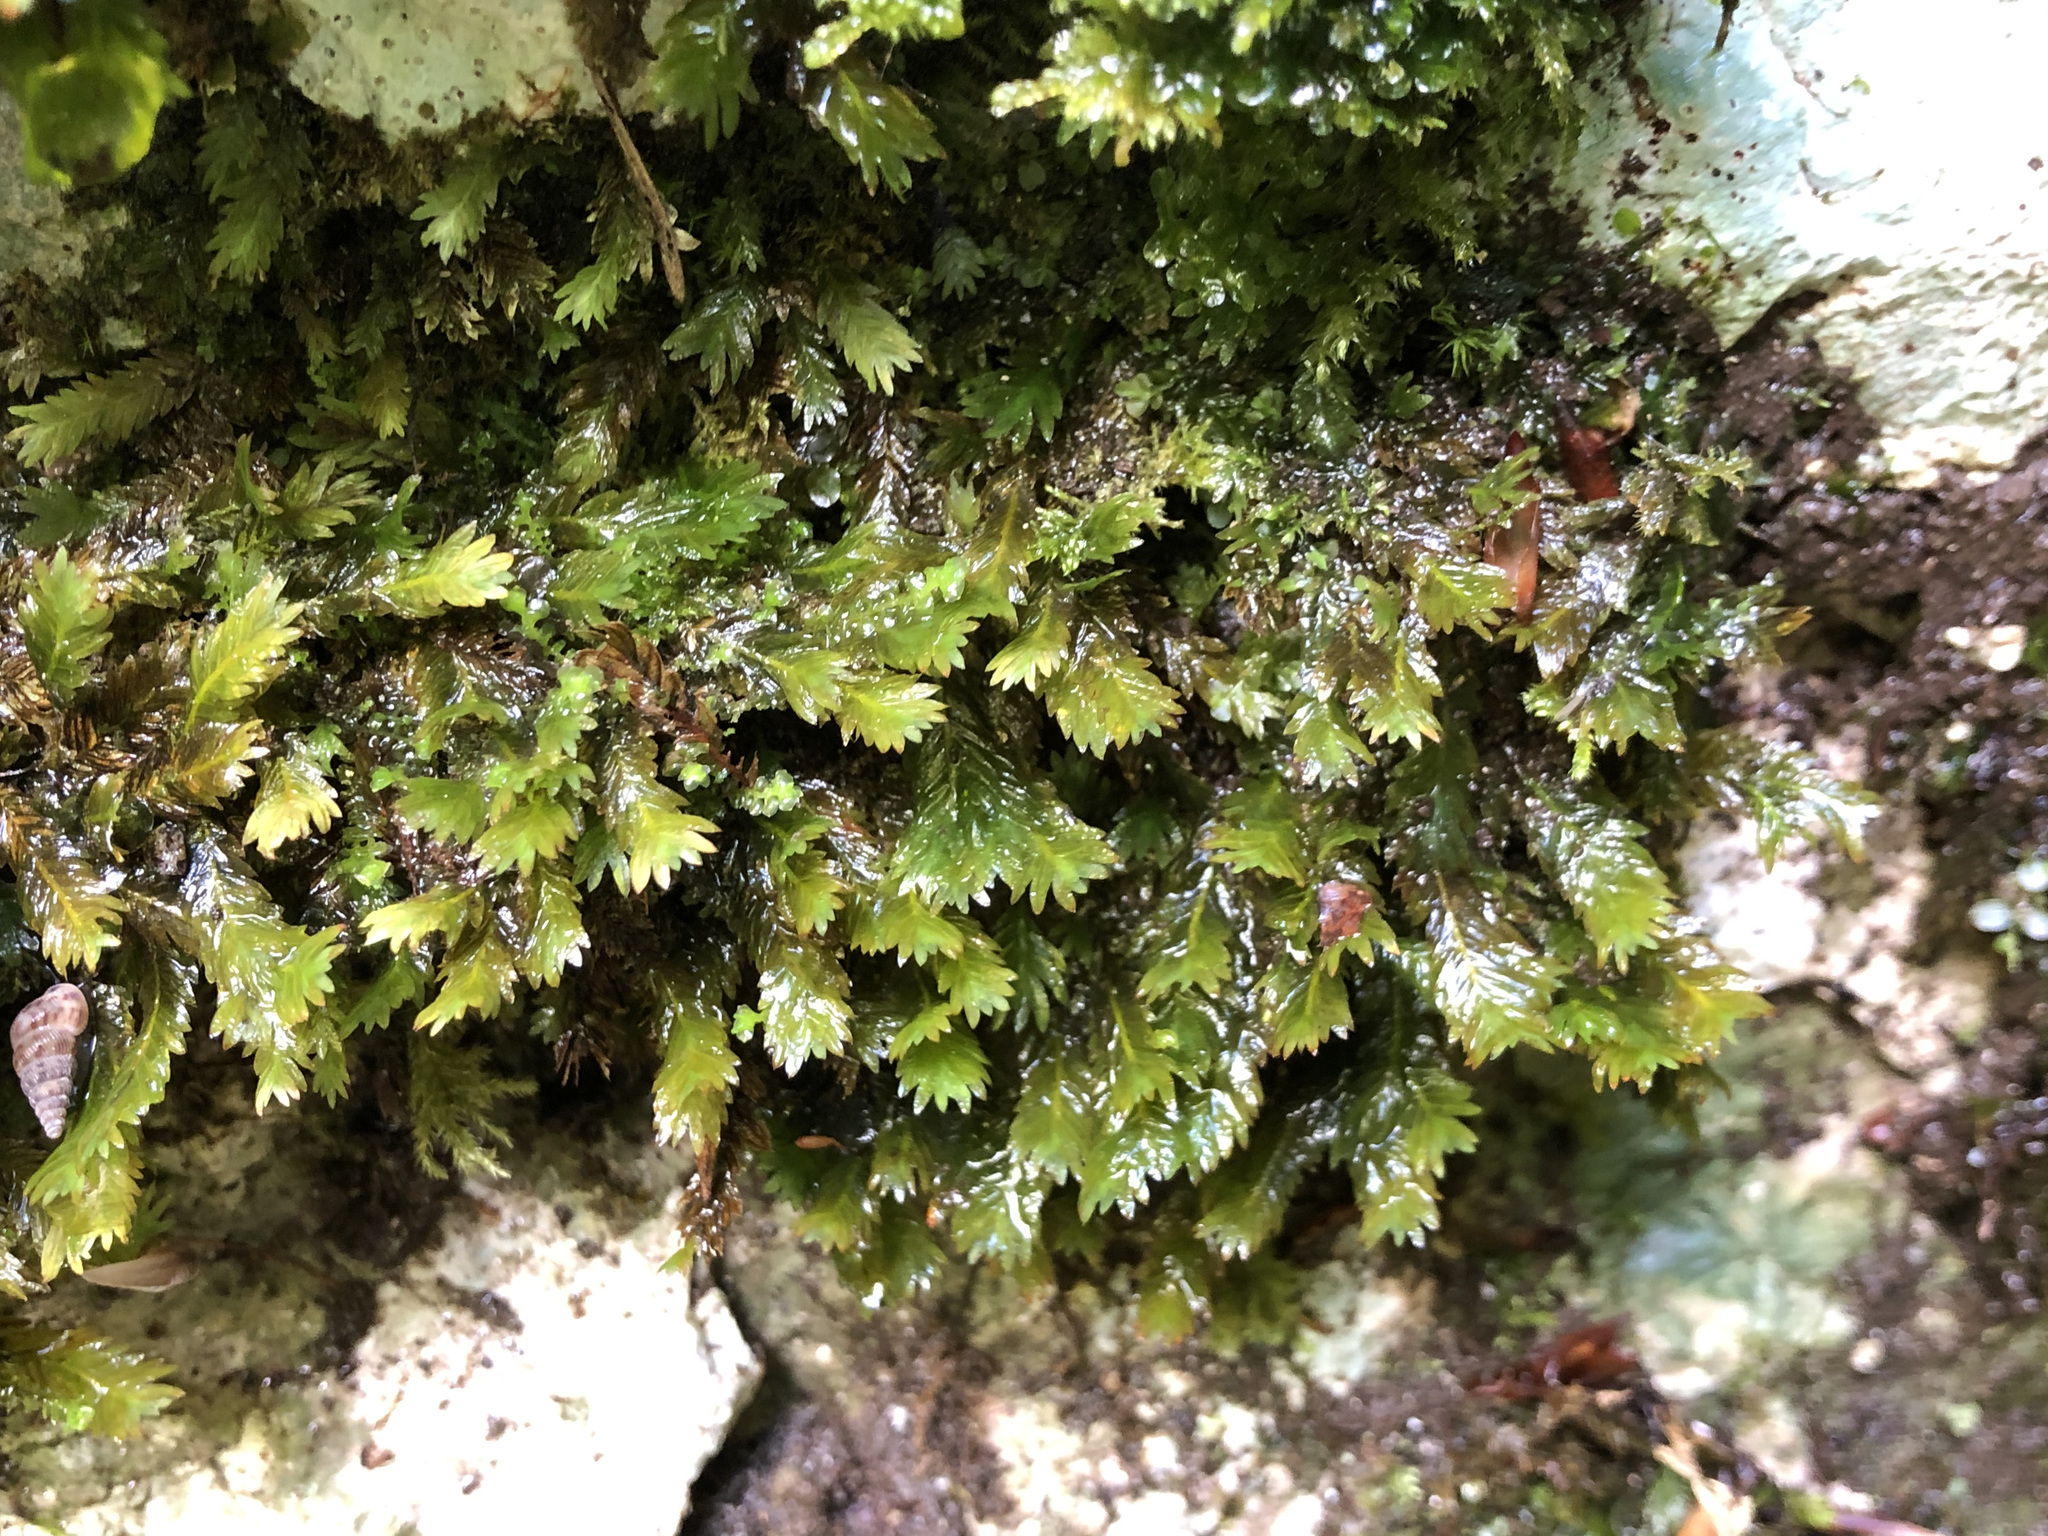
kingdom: Plantae
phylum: Bryophyta
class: Bryopsida
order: Dicranales
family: Fissidentaceae
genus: Fissidens
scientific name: Fissidens dubius
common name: Rock pocket moss
